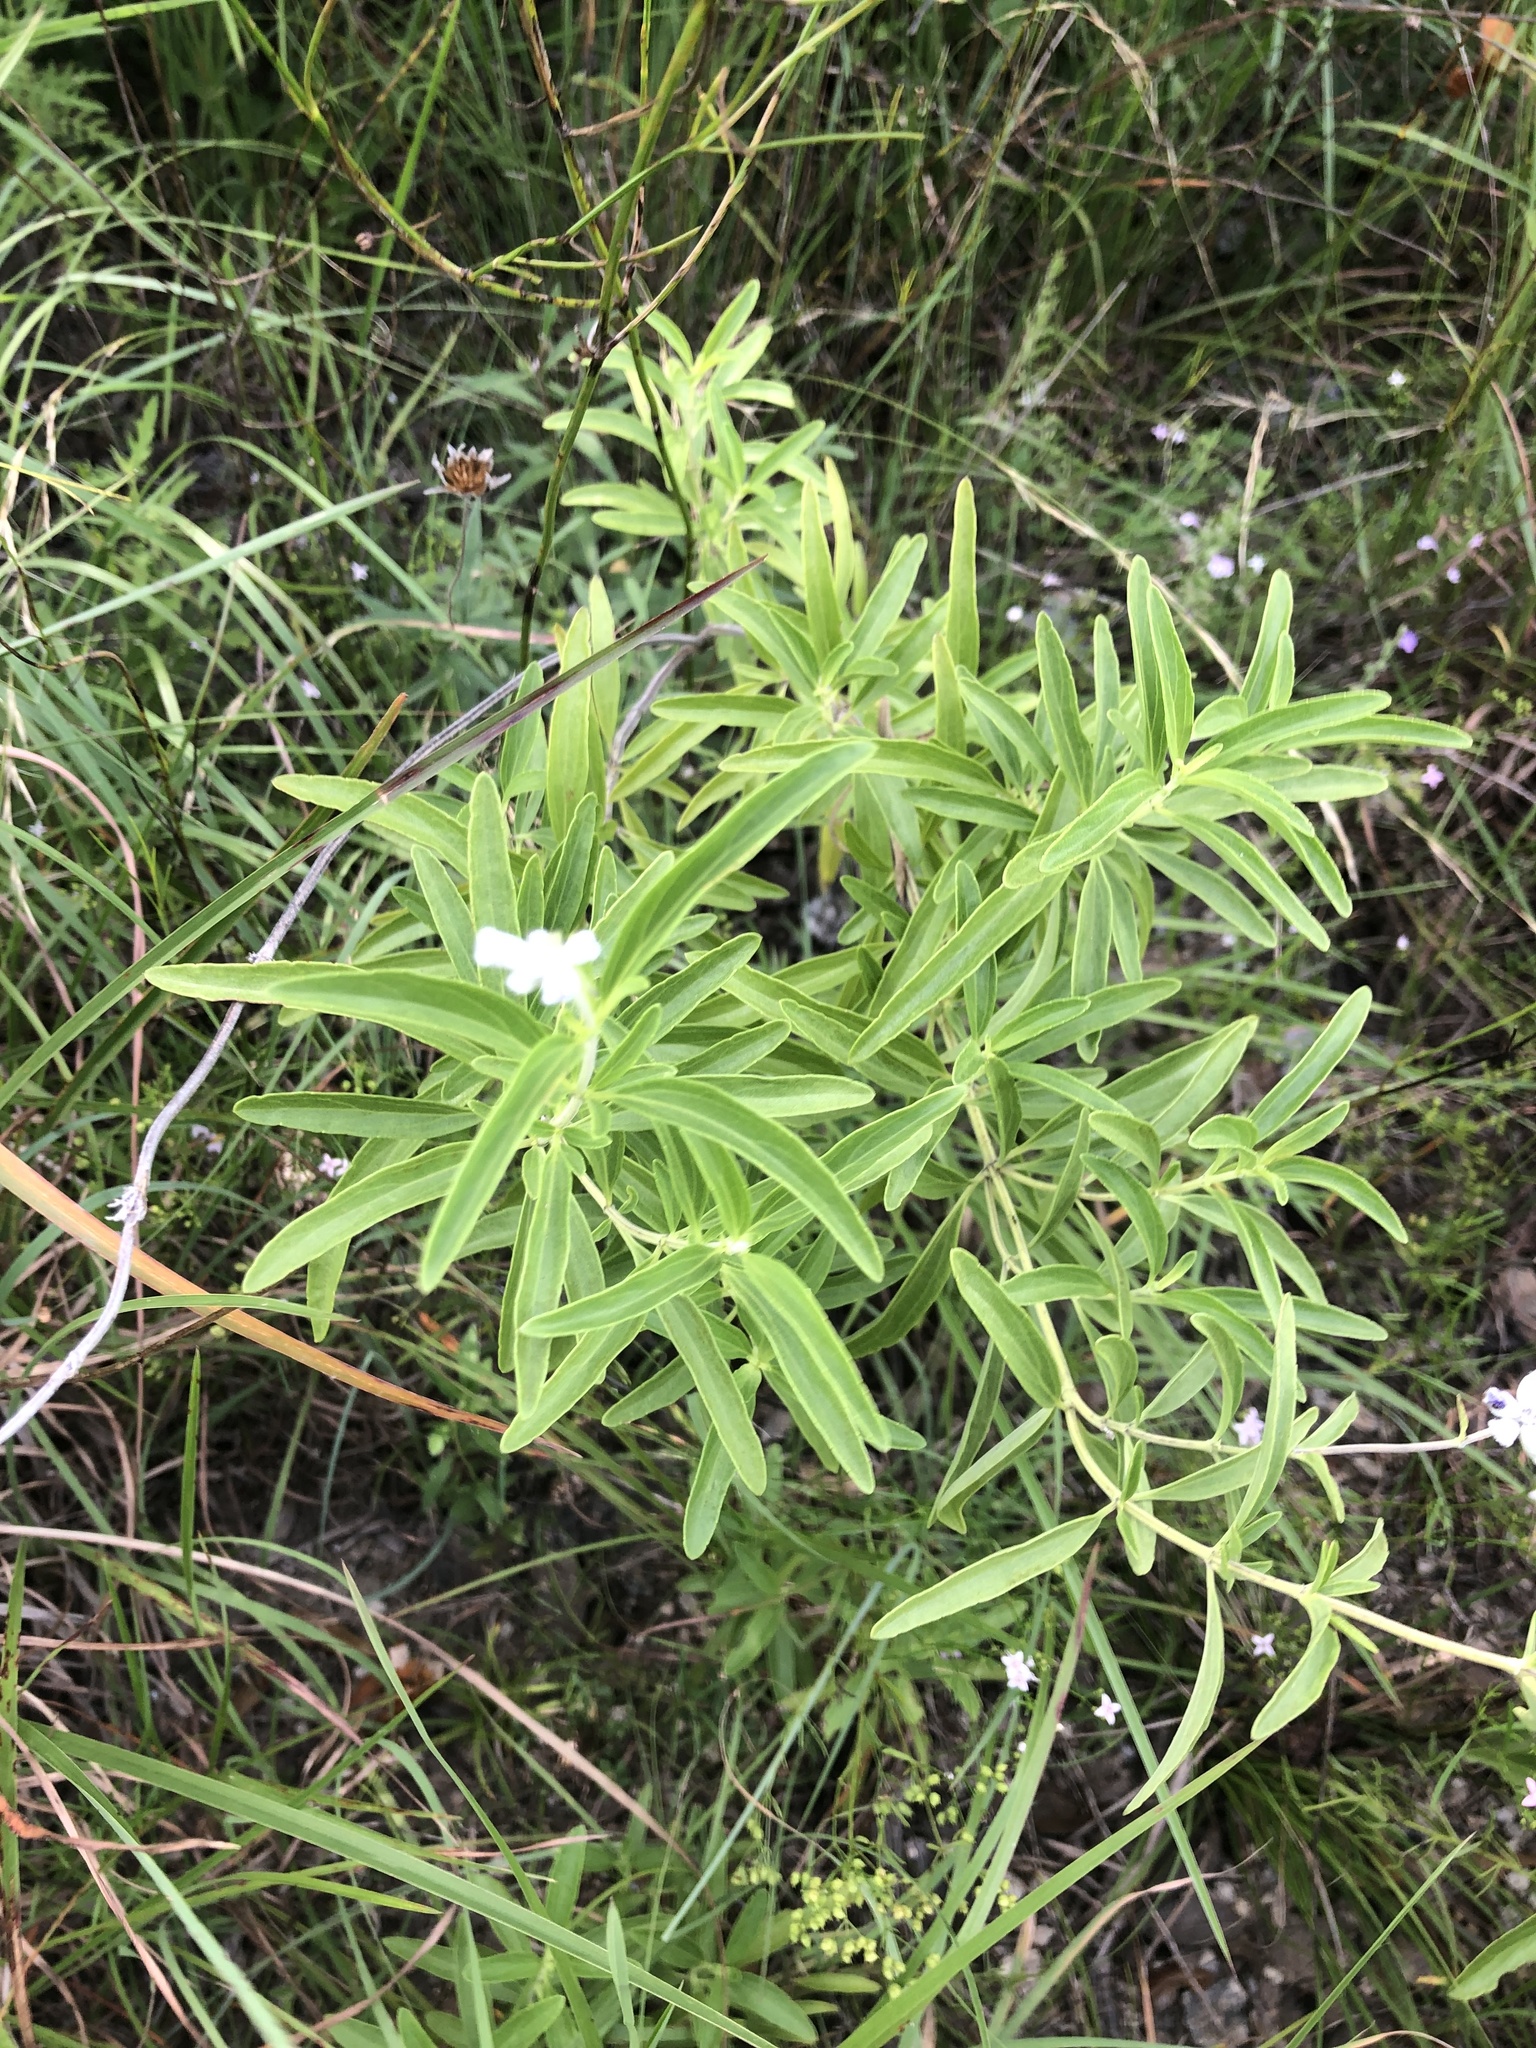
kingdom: Plantae
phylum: Tracheophyta
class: Magnoliopsida
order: Lamiales
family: Lamiaceae
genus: Salvia
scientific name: Salvia farinacea
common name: Mealy sage
